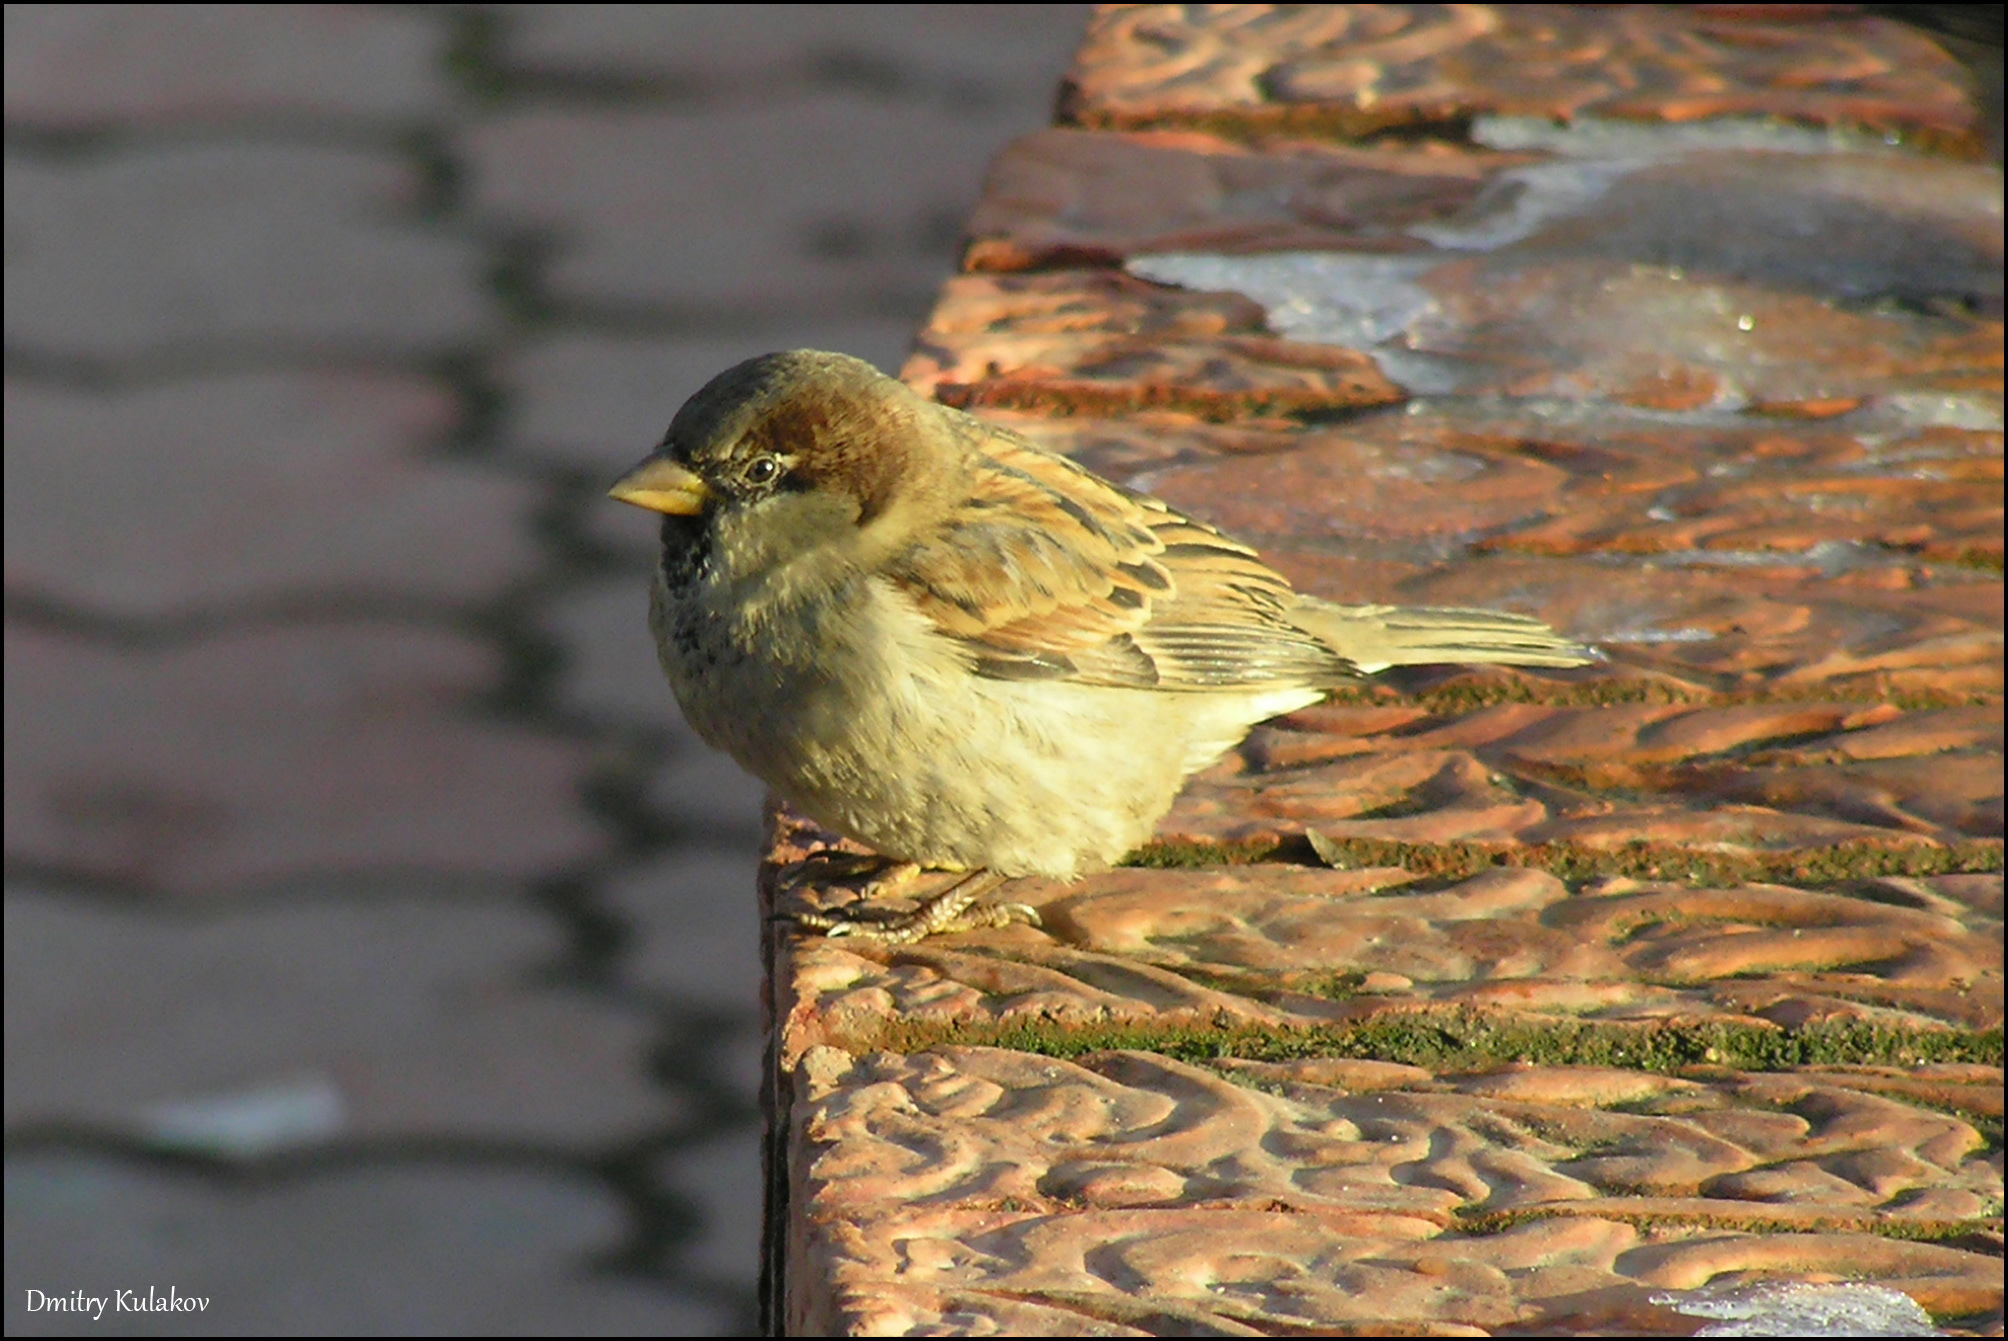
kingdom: Animalia
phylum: Chordata
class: Aves
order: Passeriformes
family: Passeridae
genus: Passer
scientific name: Passer domesticus
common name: House sparrow
